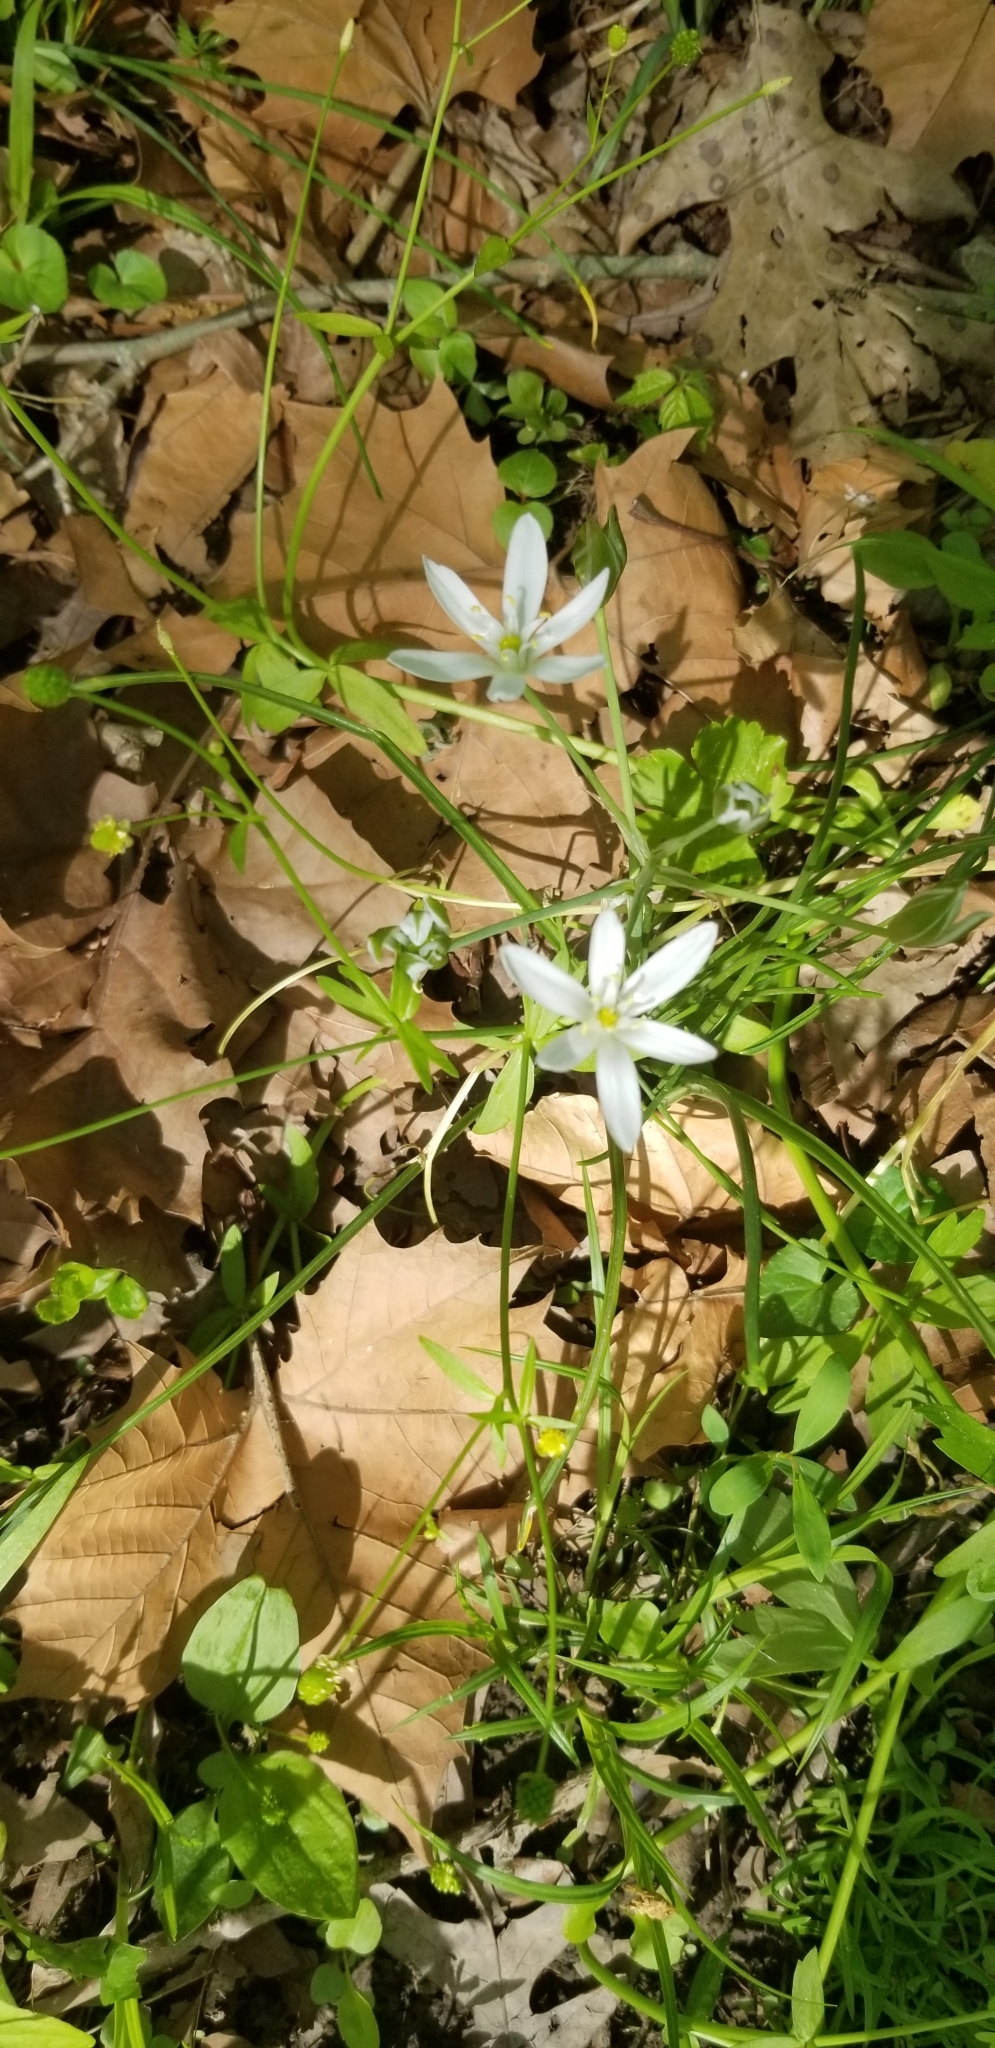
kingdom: Plantae
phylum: Tracheophyta
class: Liliopsida
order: Asparagales
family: Asparagaceae
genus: Ornithogalum
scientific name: Ornithogalum umbellatum
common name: Garden star-of-bethlehem
